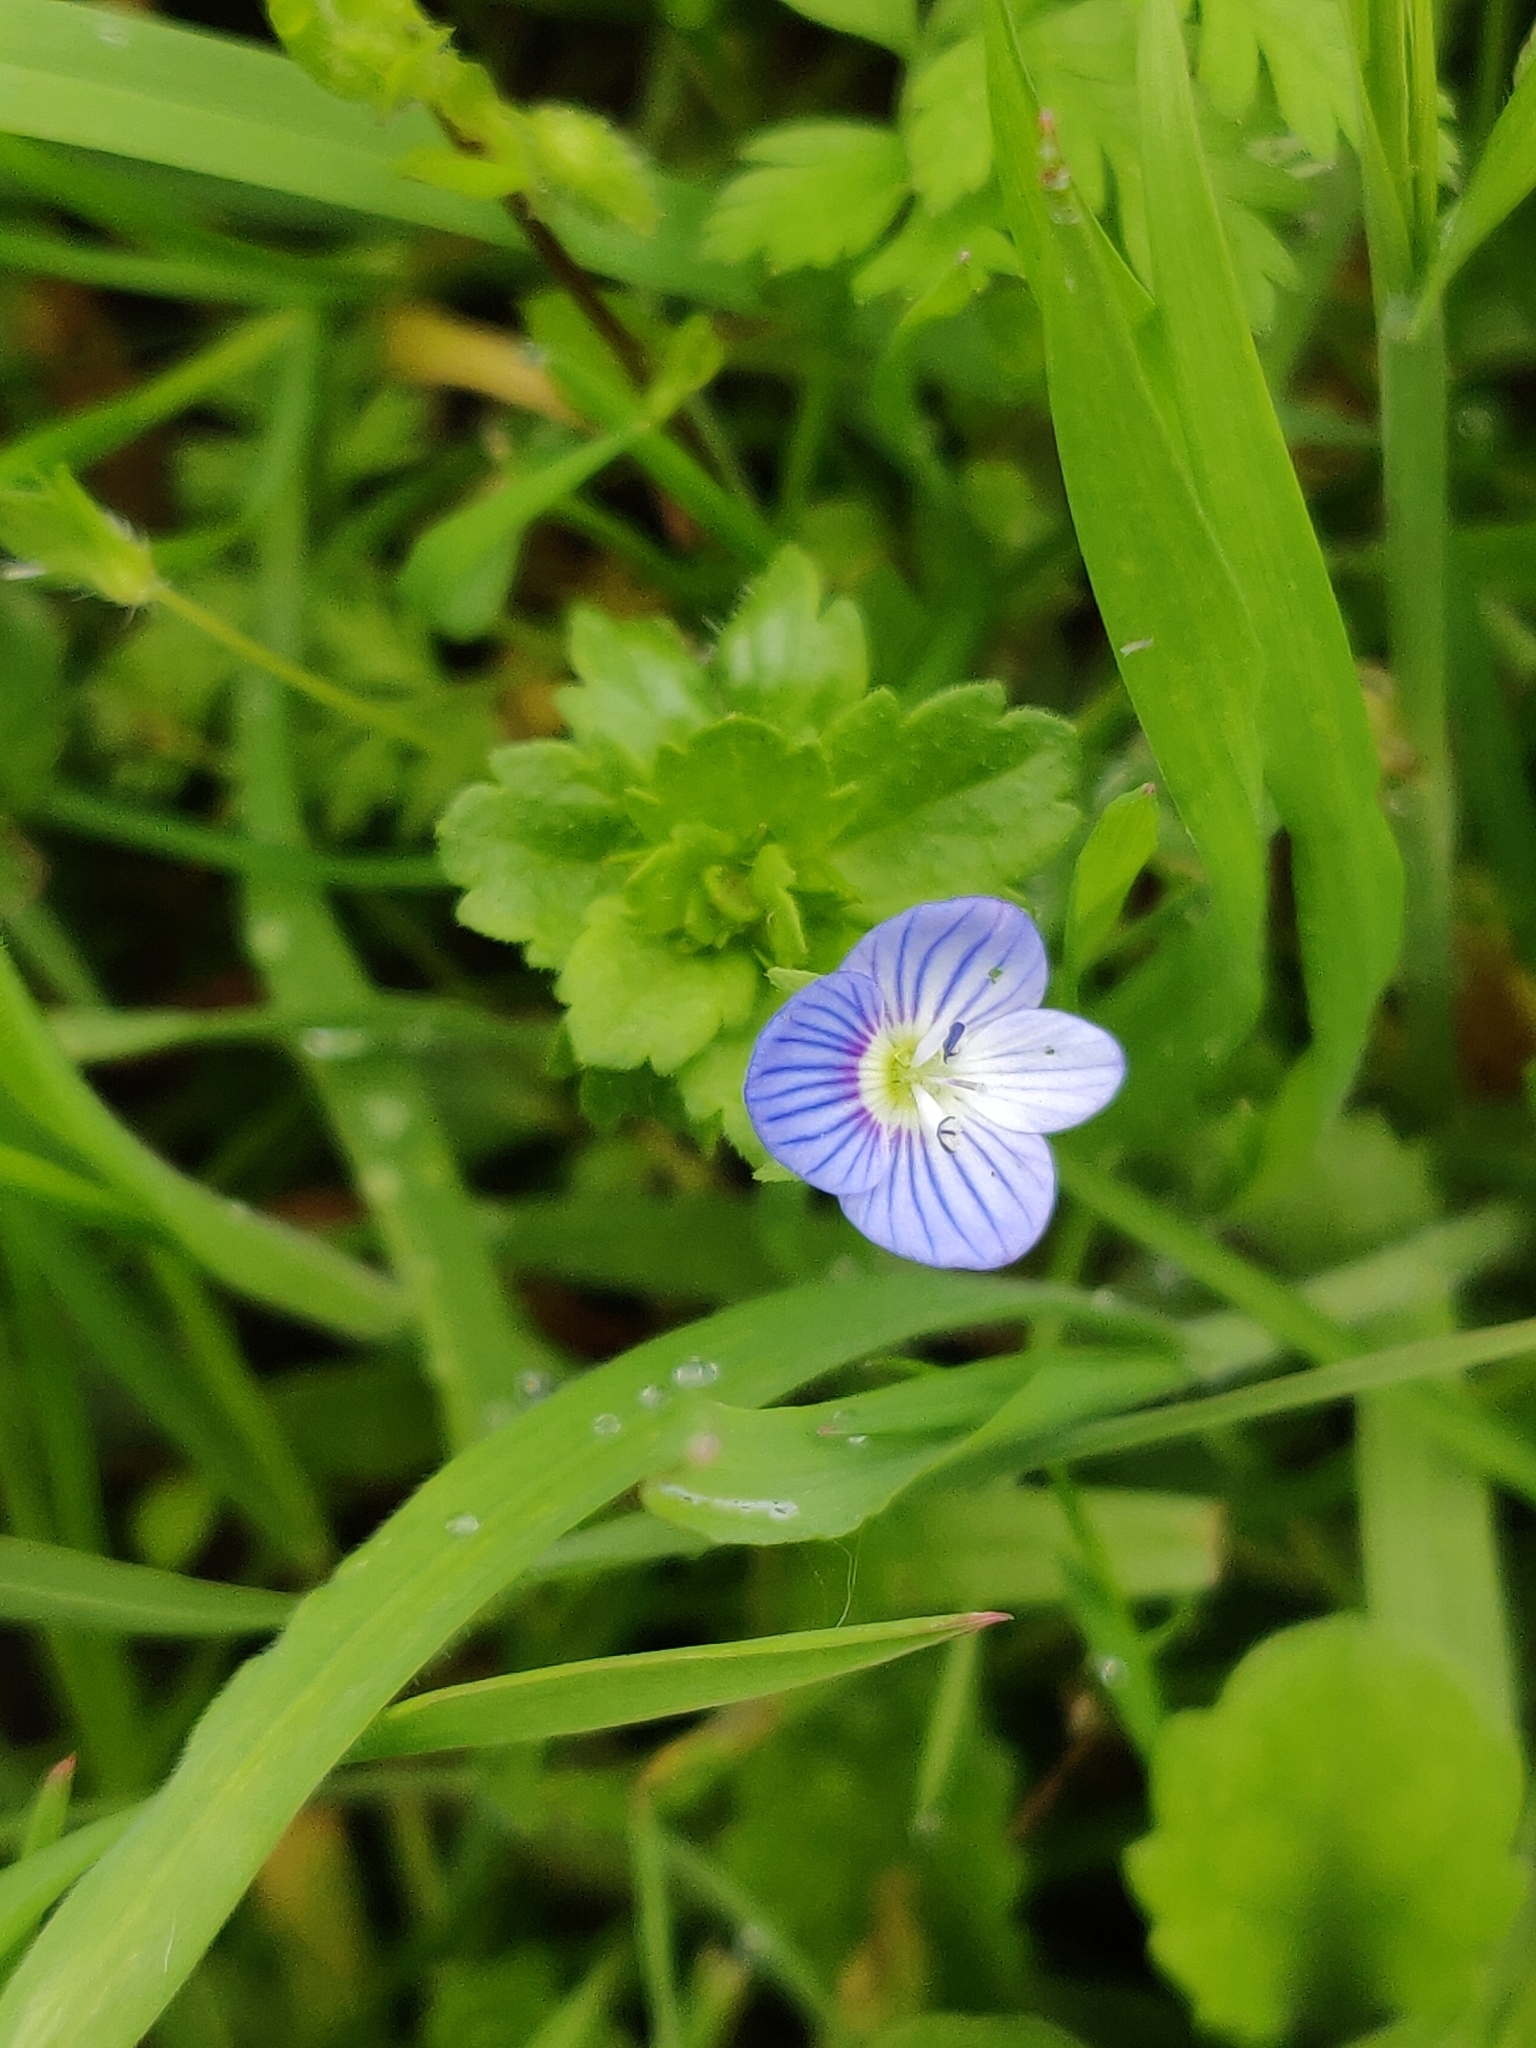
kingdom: Plantae
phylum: Tracheophyta
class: Magnoliopsida
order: Lamiales
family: Plantaginaceae
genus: Veronica
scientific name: Veronica persica
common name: Common field-speedwell
